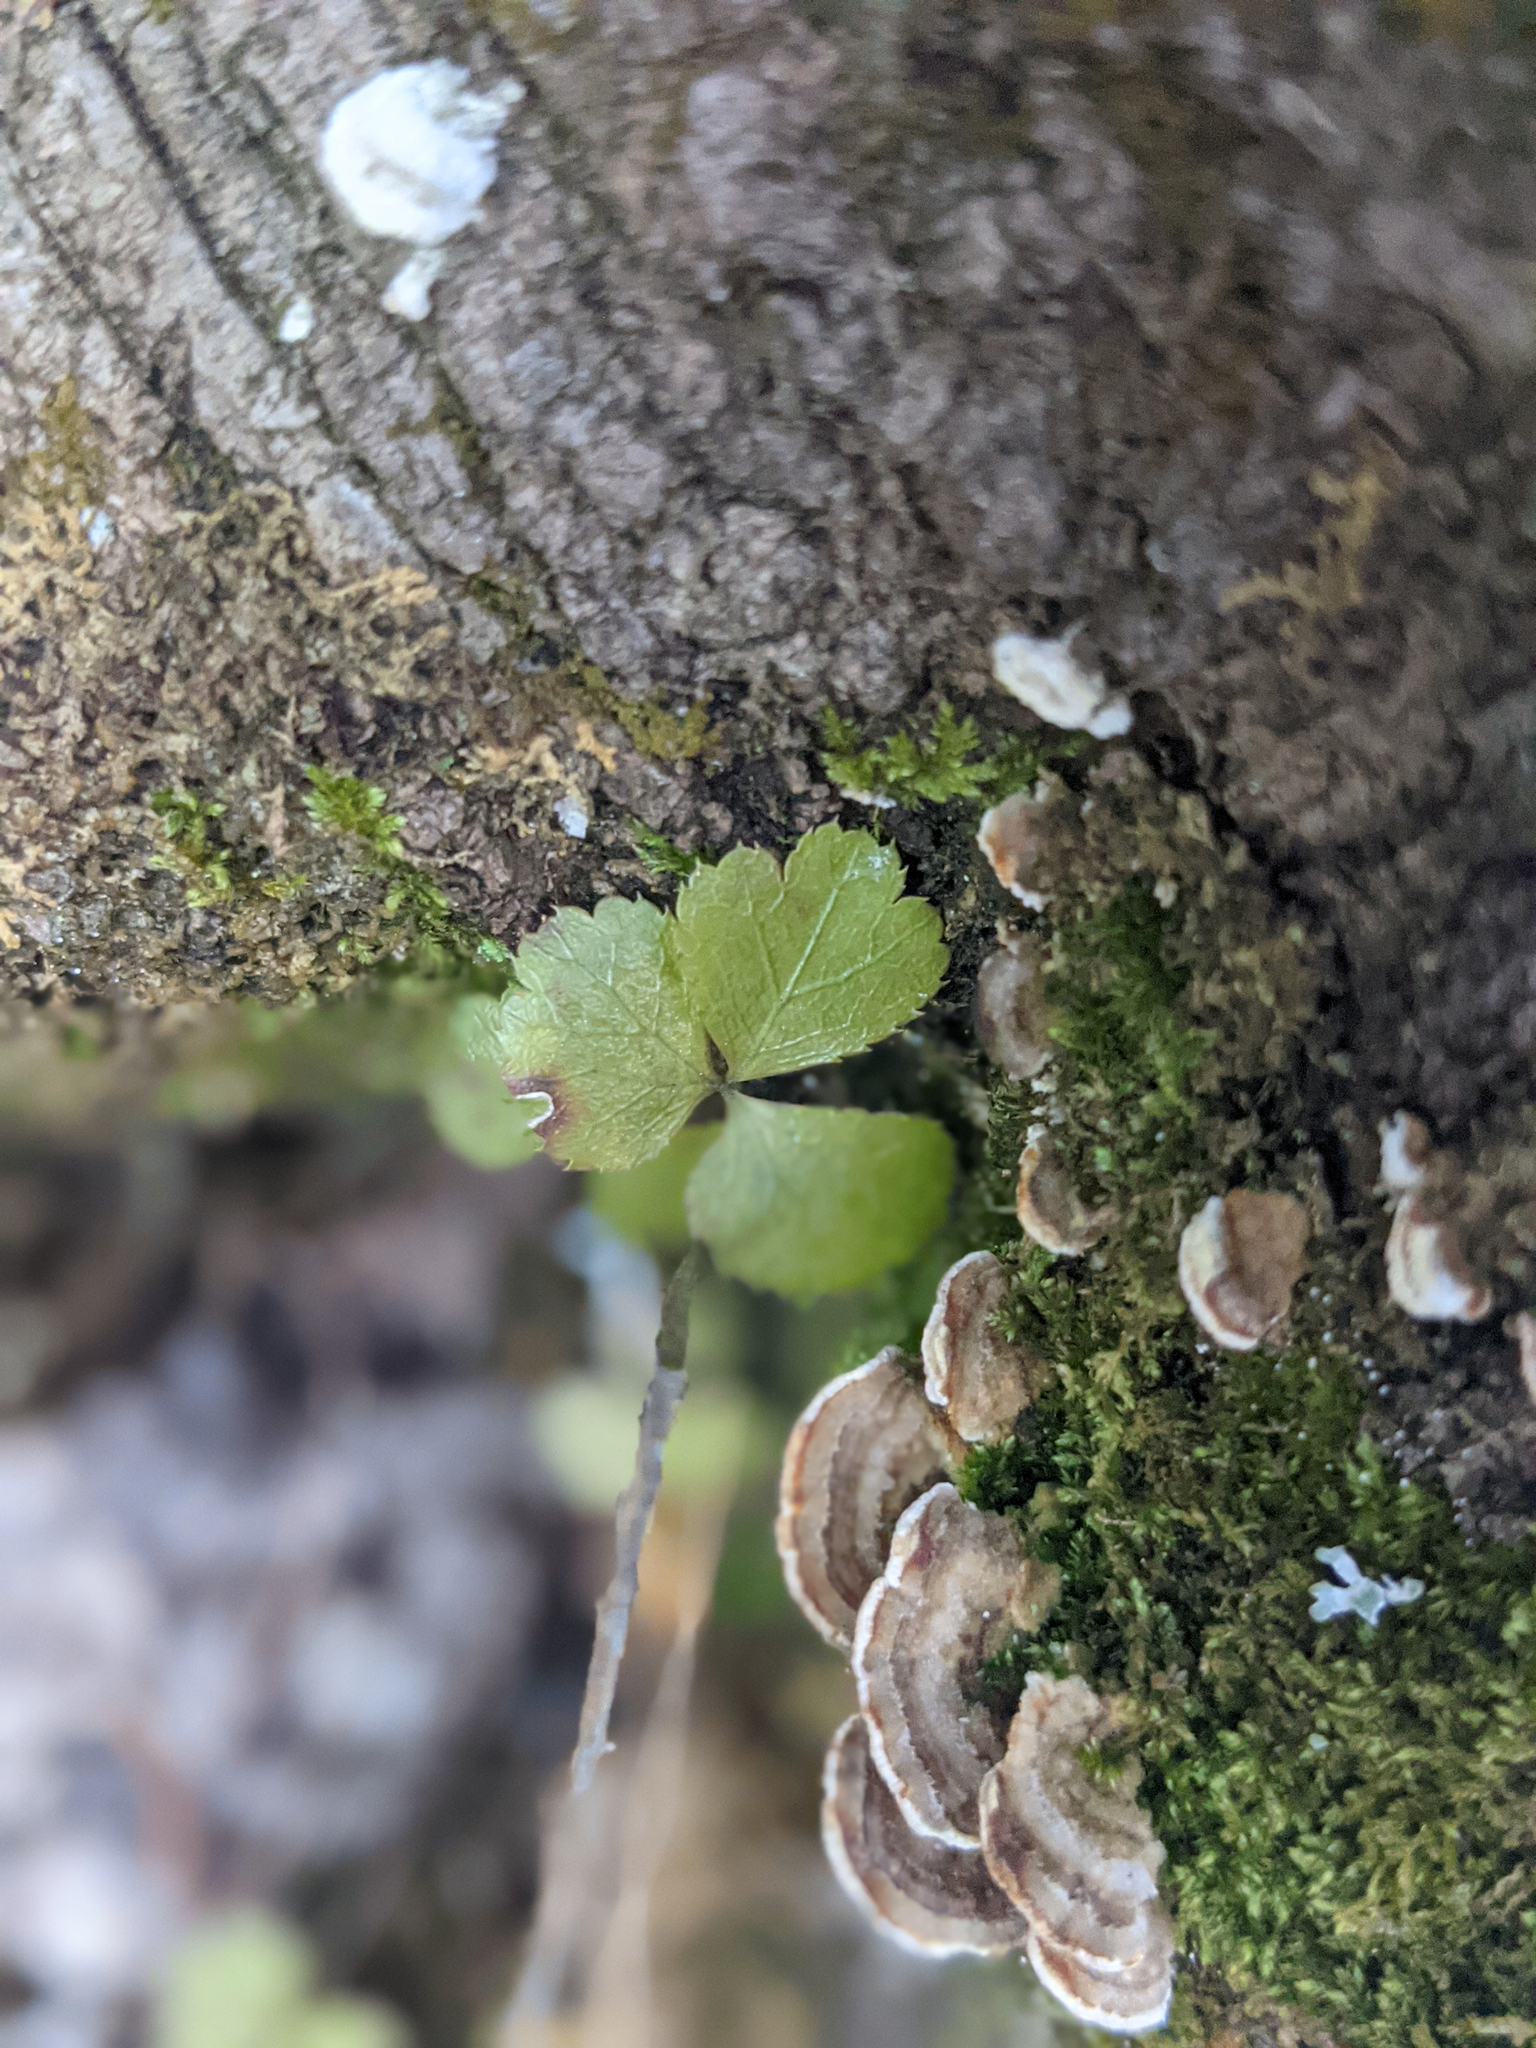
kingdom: Plantae
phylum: Tracheophyta
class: Magnoliopsida
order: Ranunculales
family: Ranunculaceae
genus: Coptis
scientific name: Coptis trifolia
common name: Canker-root
